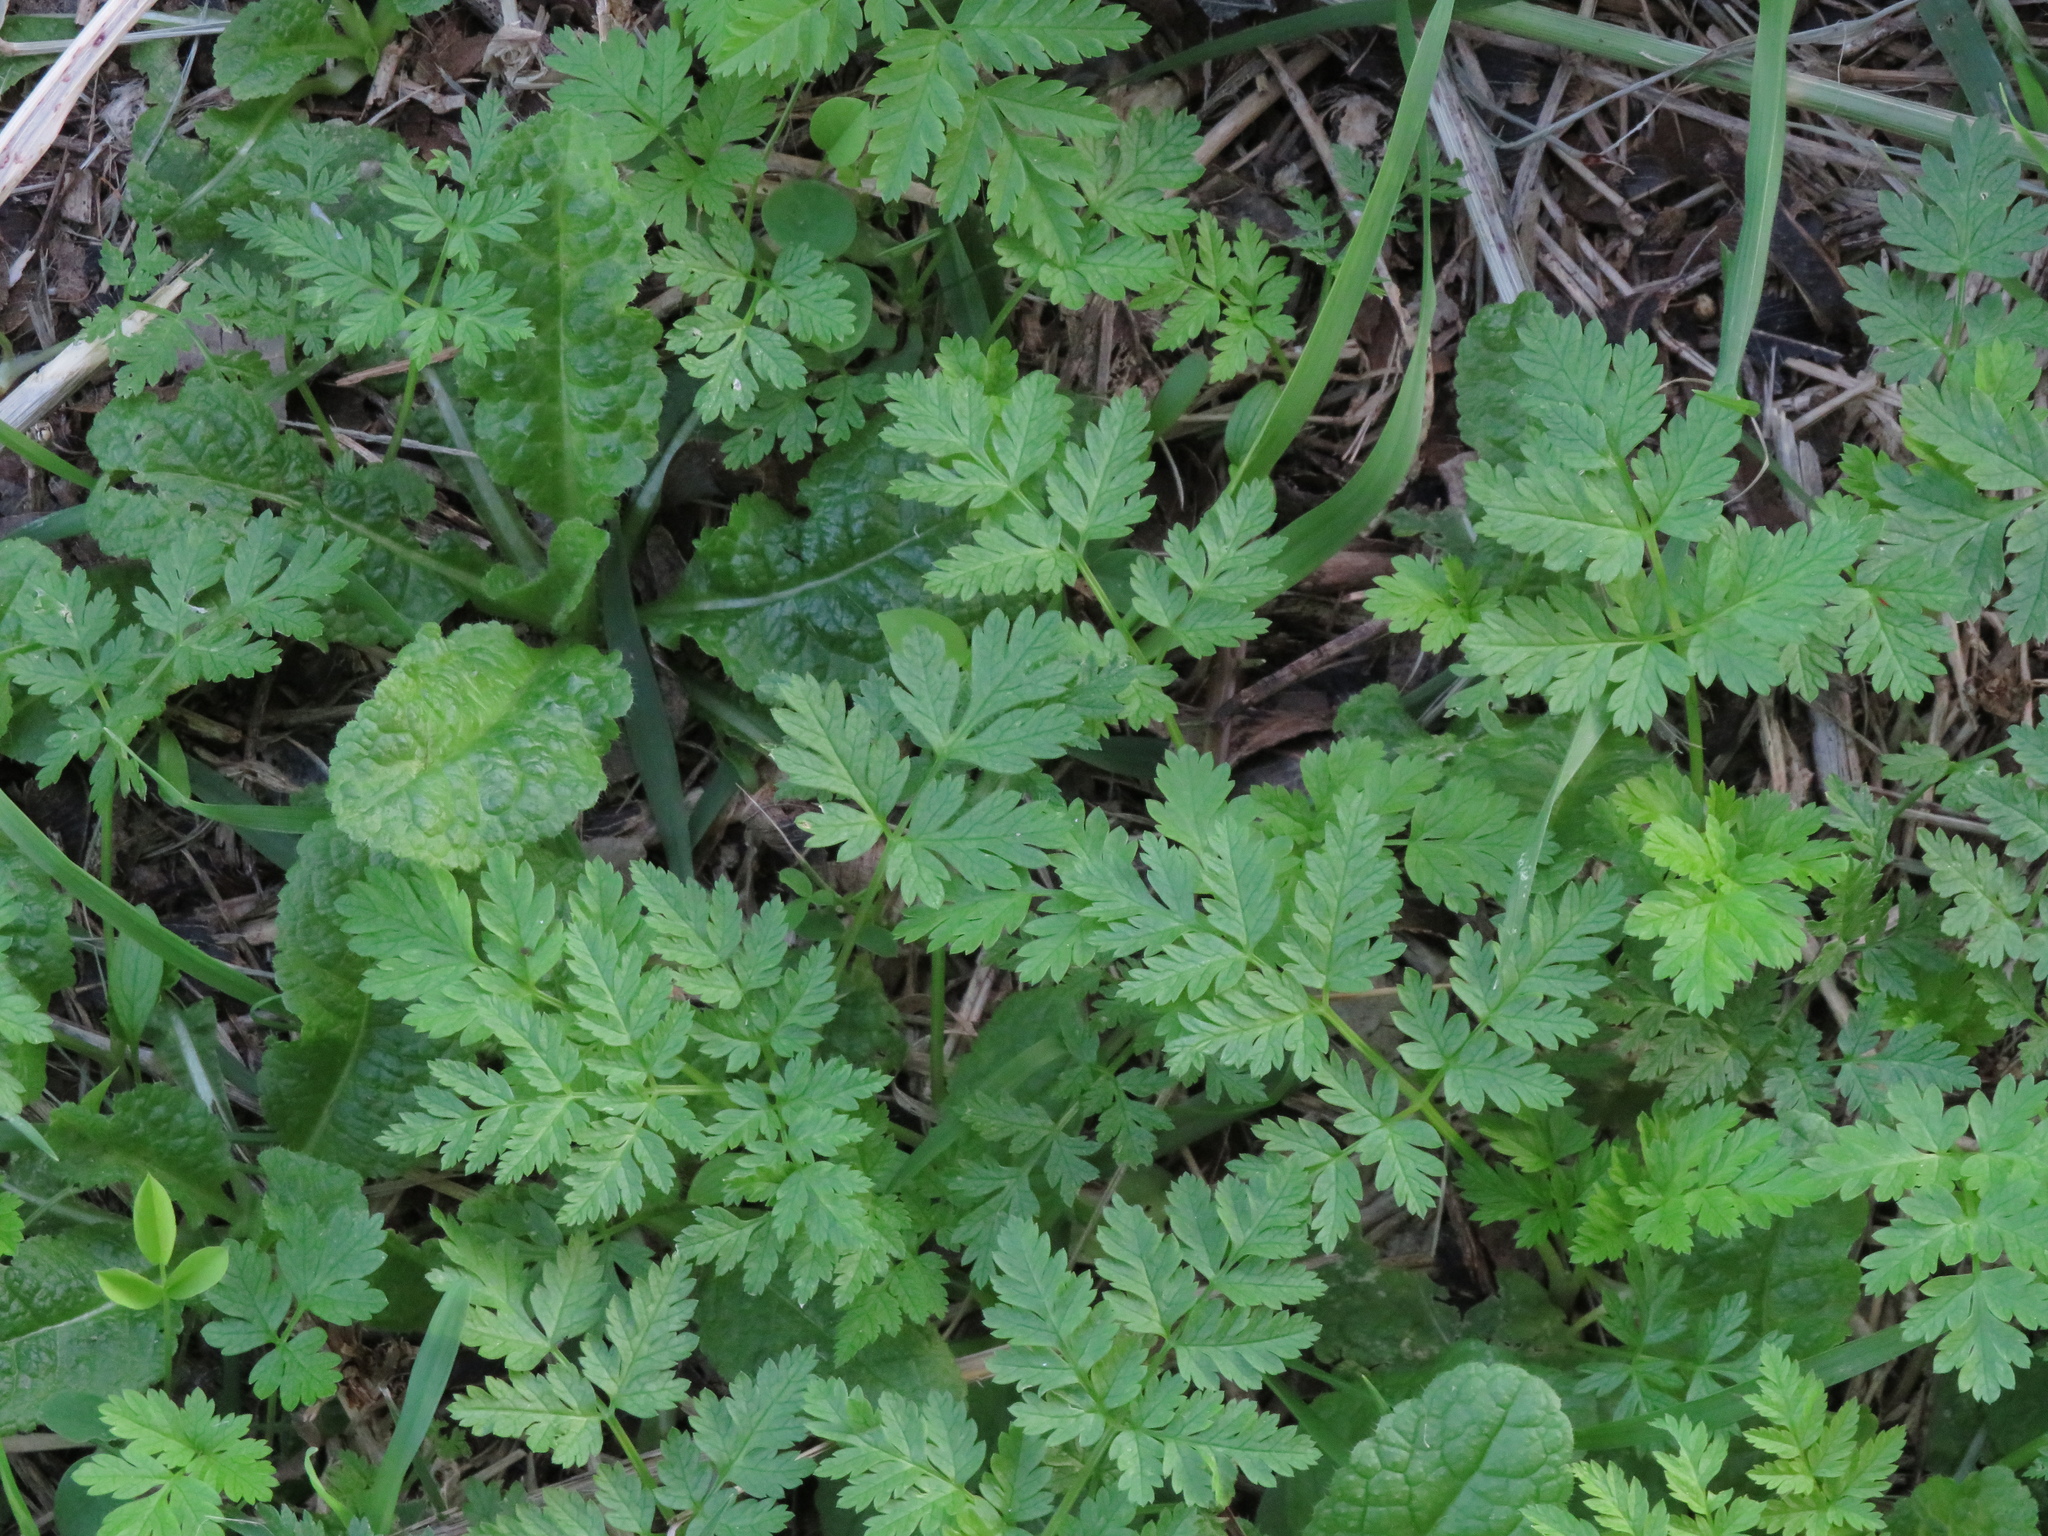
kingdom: Plantae
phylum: Tracheophyta
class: Magnoliopsida
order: Apiales
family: Apiaceae
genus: Conium
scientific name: Conium maculatum
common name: Hemlock
